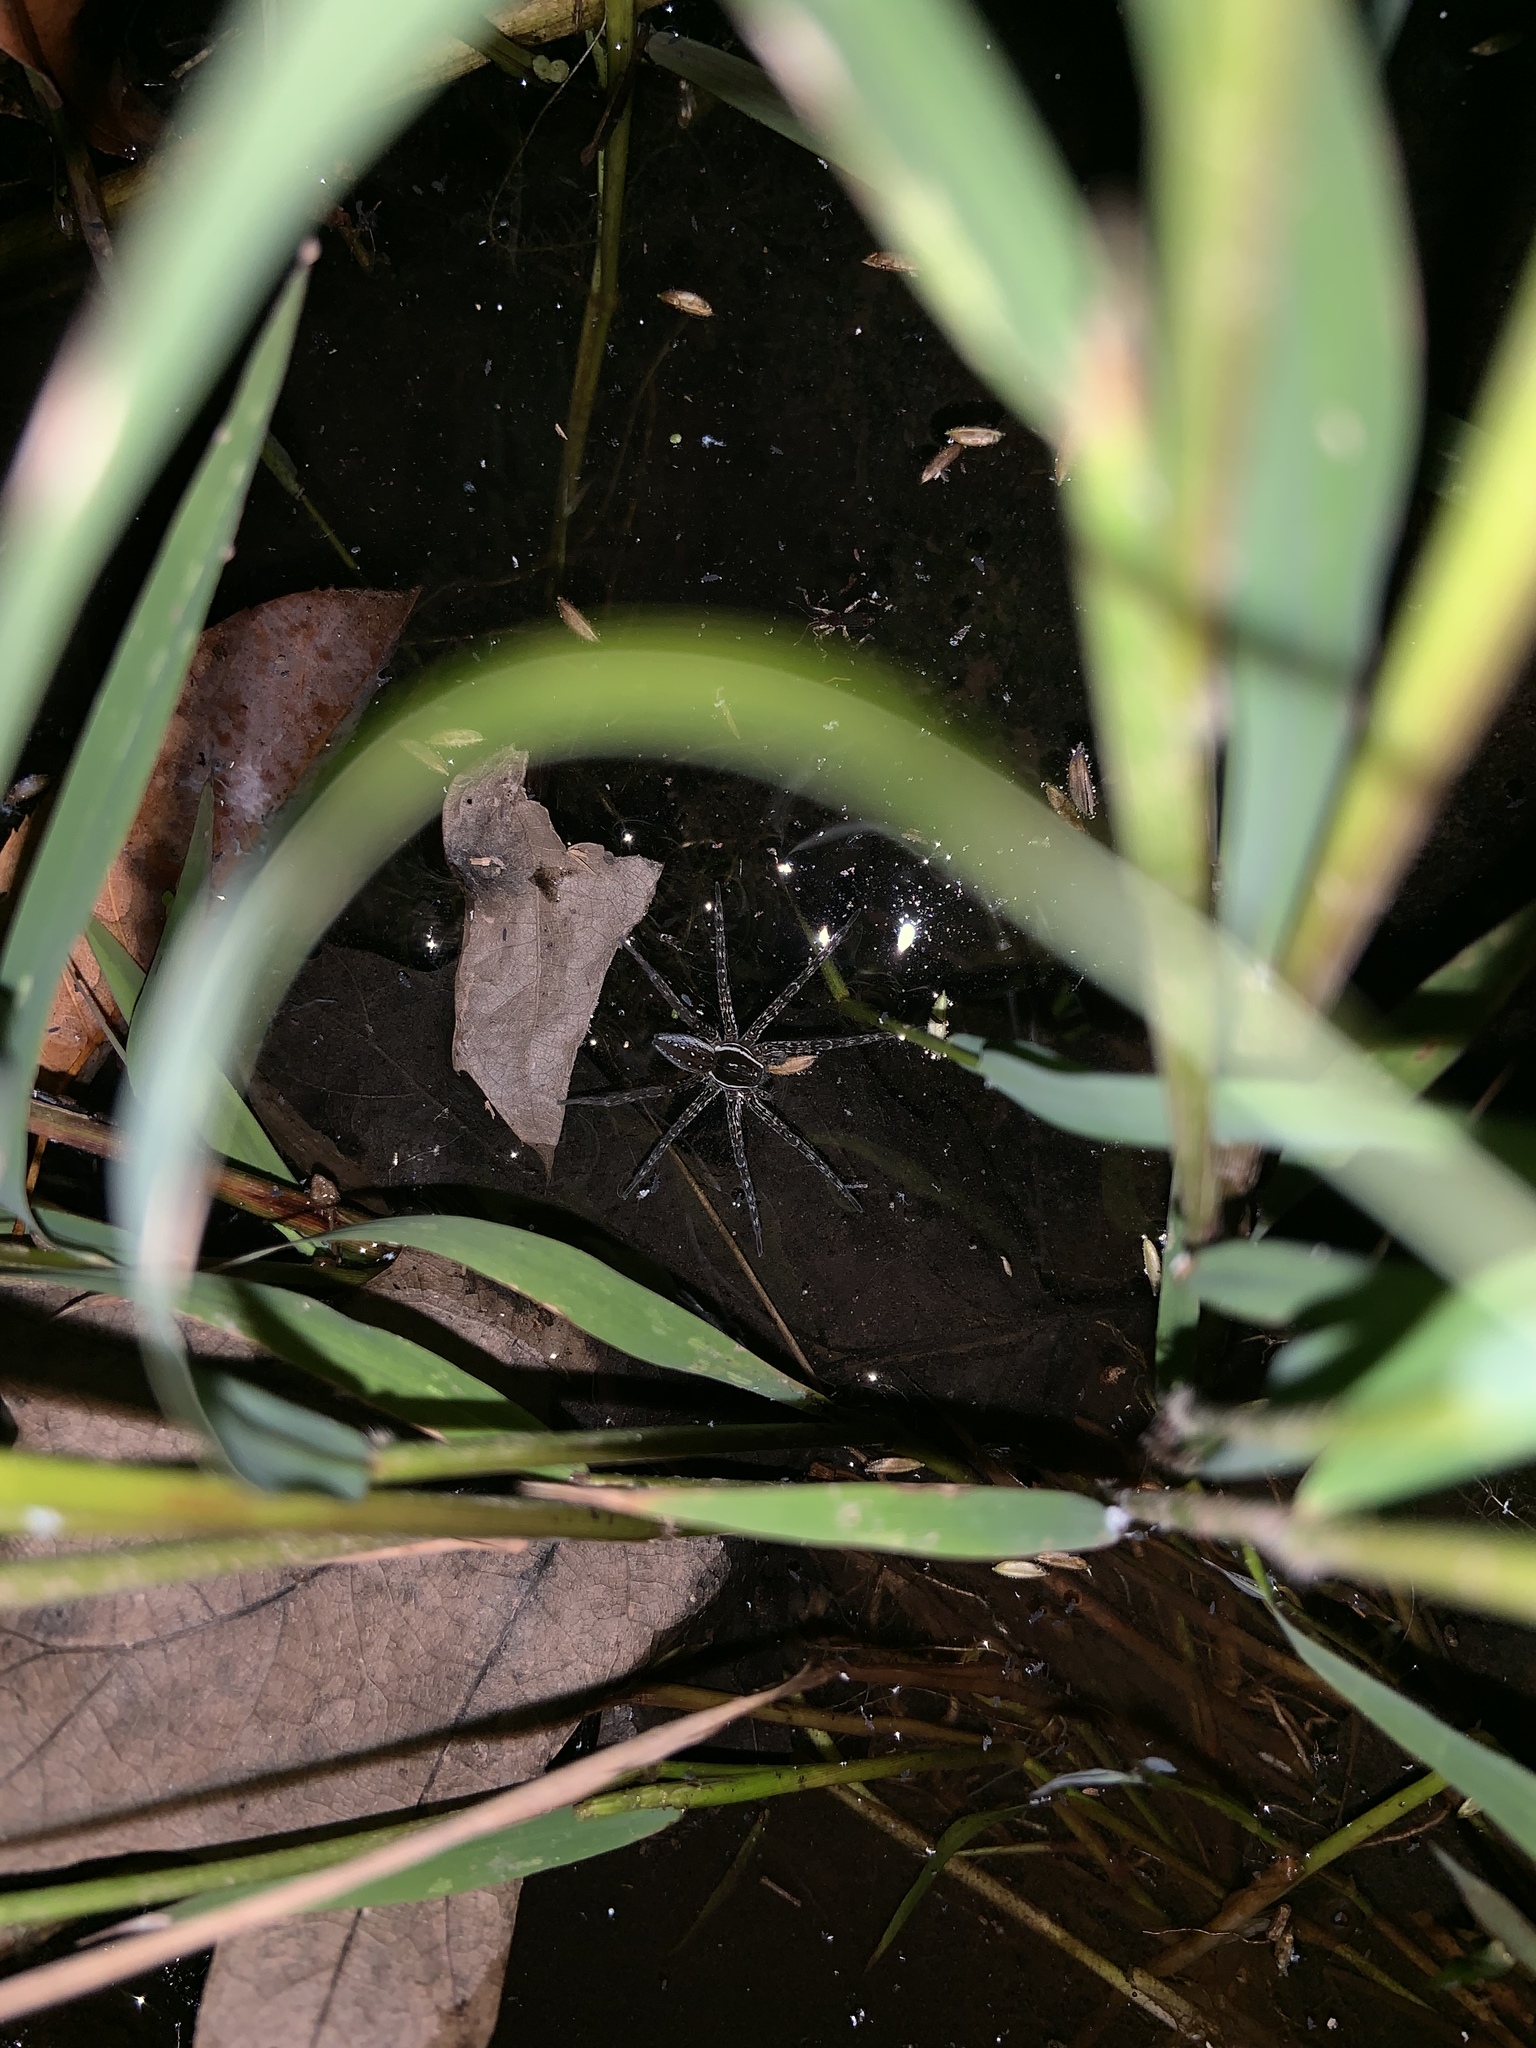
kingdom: Animalia
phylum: Arthropoda
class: Arachnida
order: Araneae
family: Pisauridae
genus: Dolomedes
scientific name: Dolomedes triton
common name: Six-spotted fishing spider
